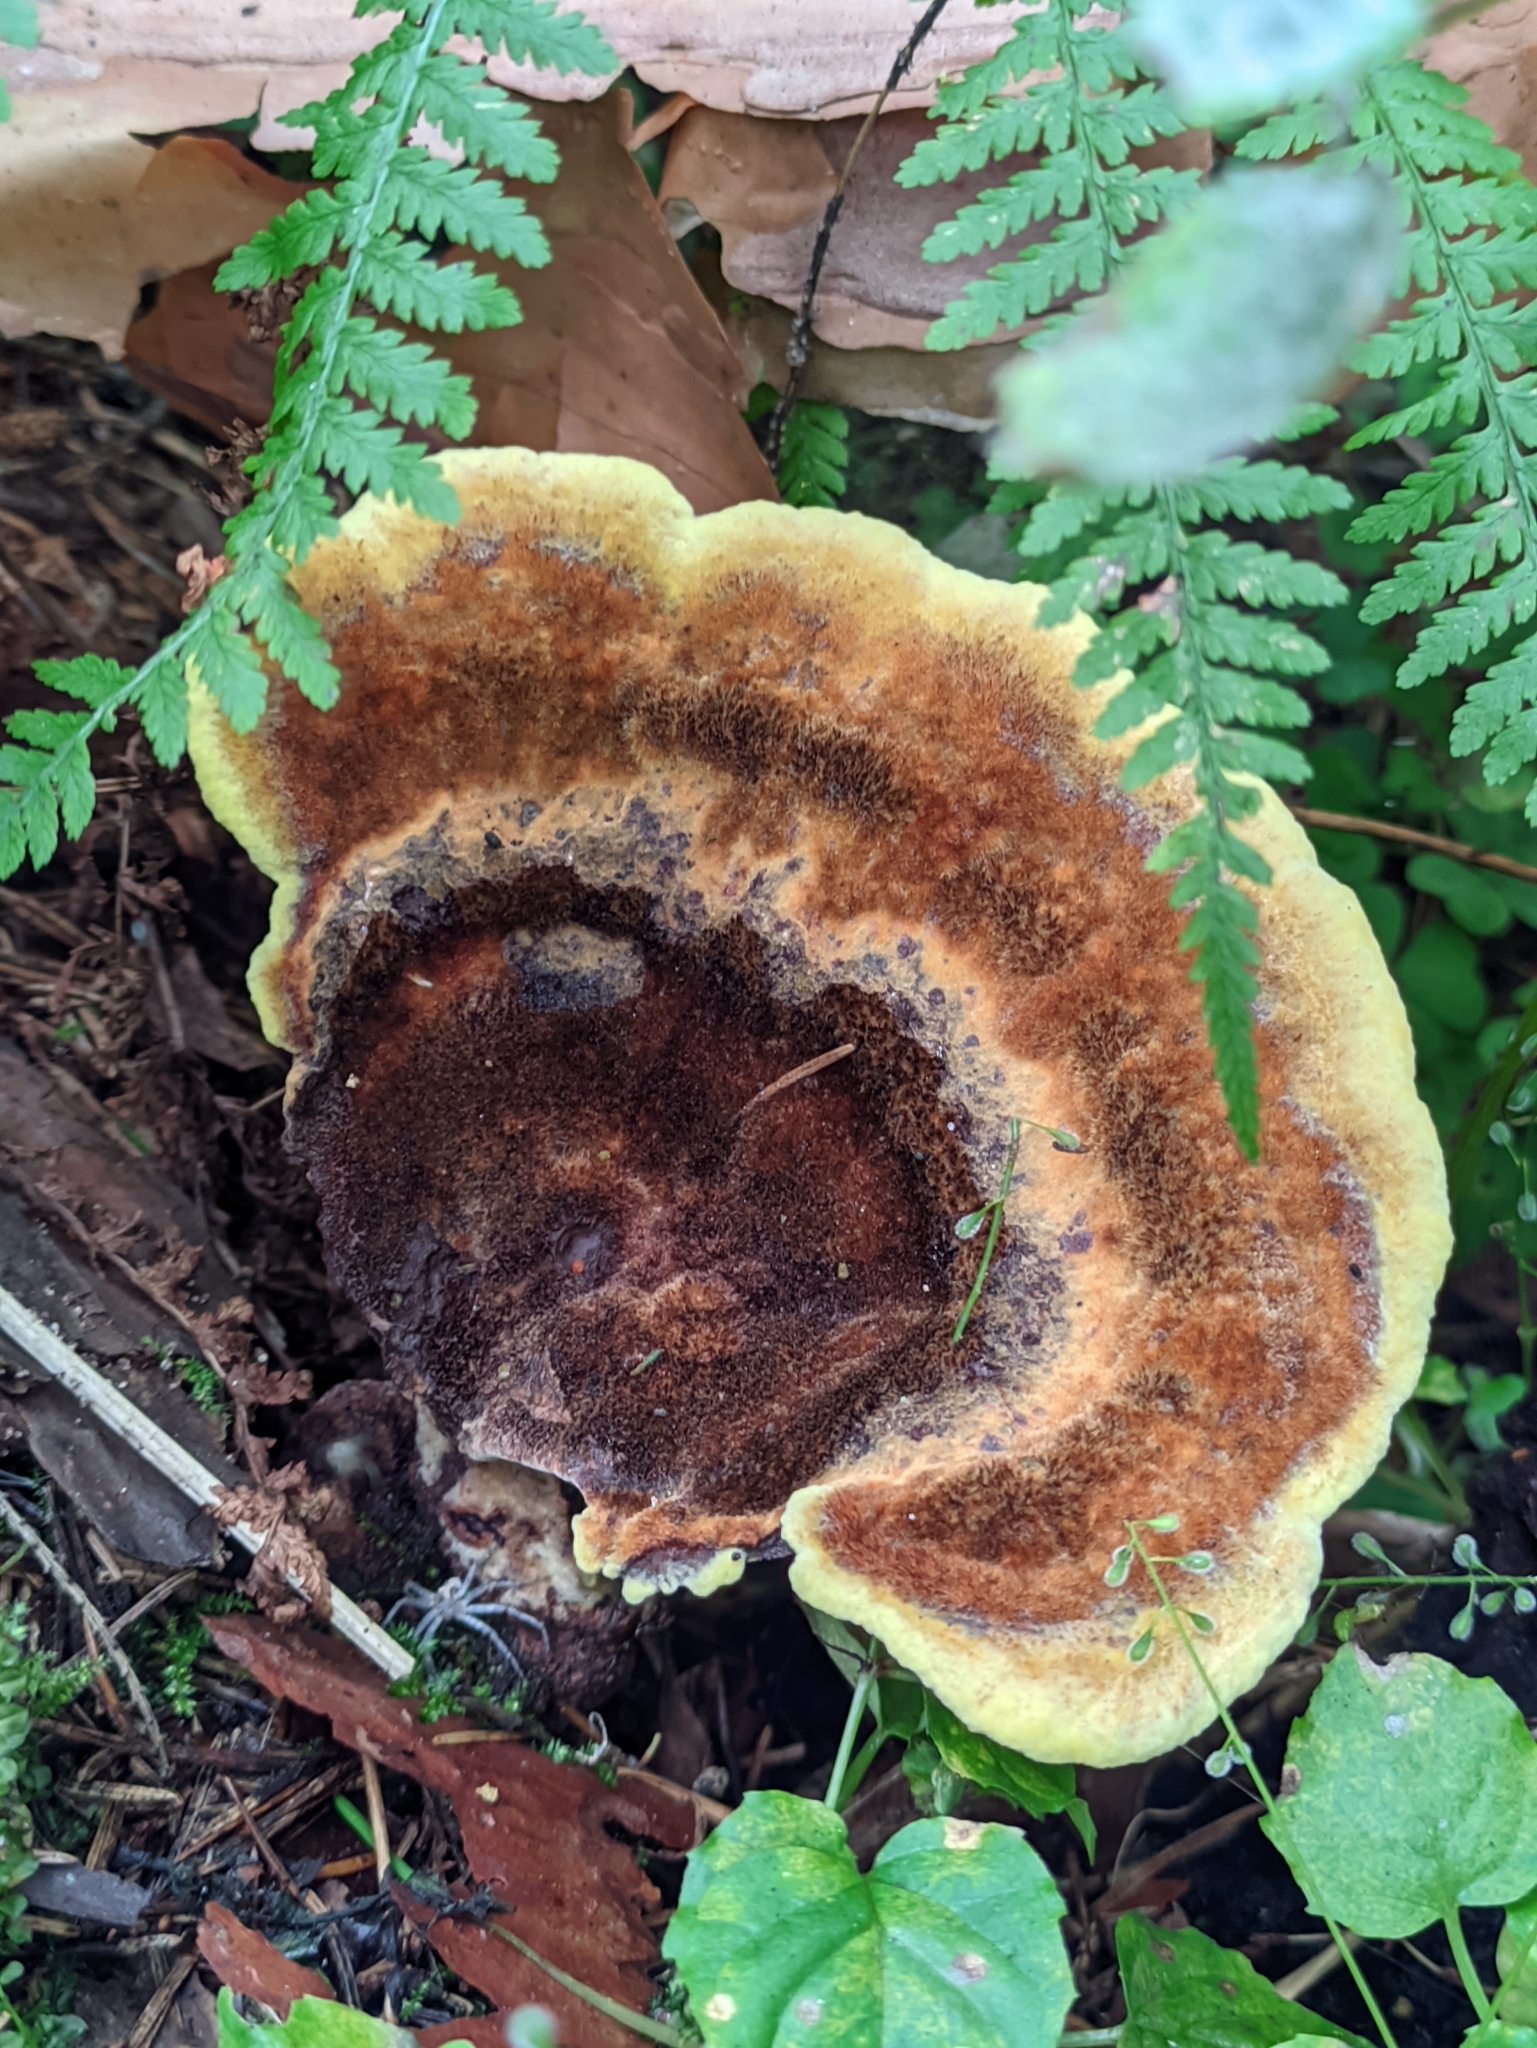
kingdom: Fungi
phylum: Basidiomycota
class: Agaricomycetes
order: Polyporales
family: Laetiporaceae
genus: Phaeolus
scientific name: Phaeolus schweinitzii
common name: Dyer's mazegill
